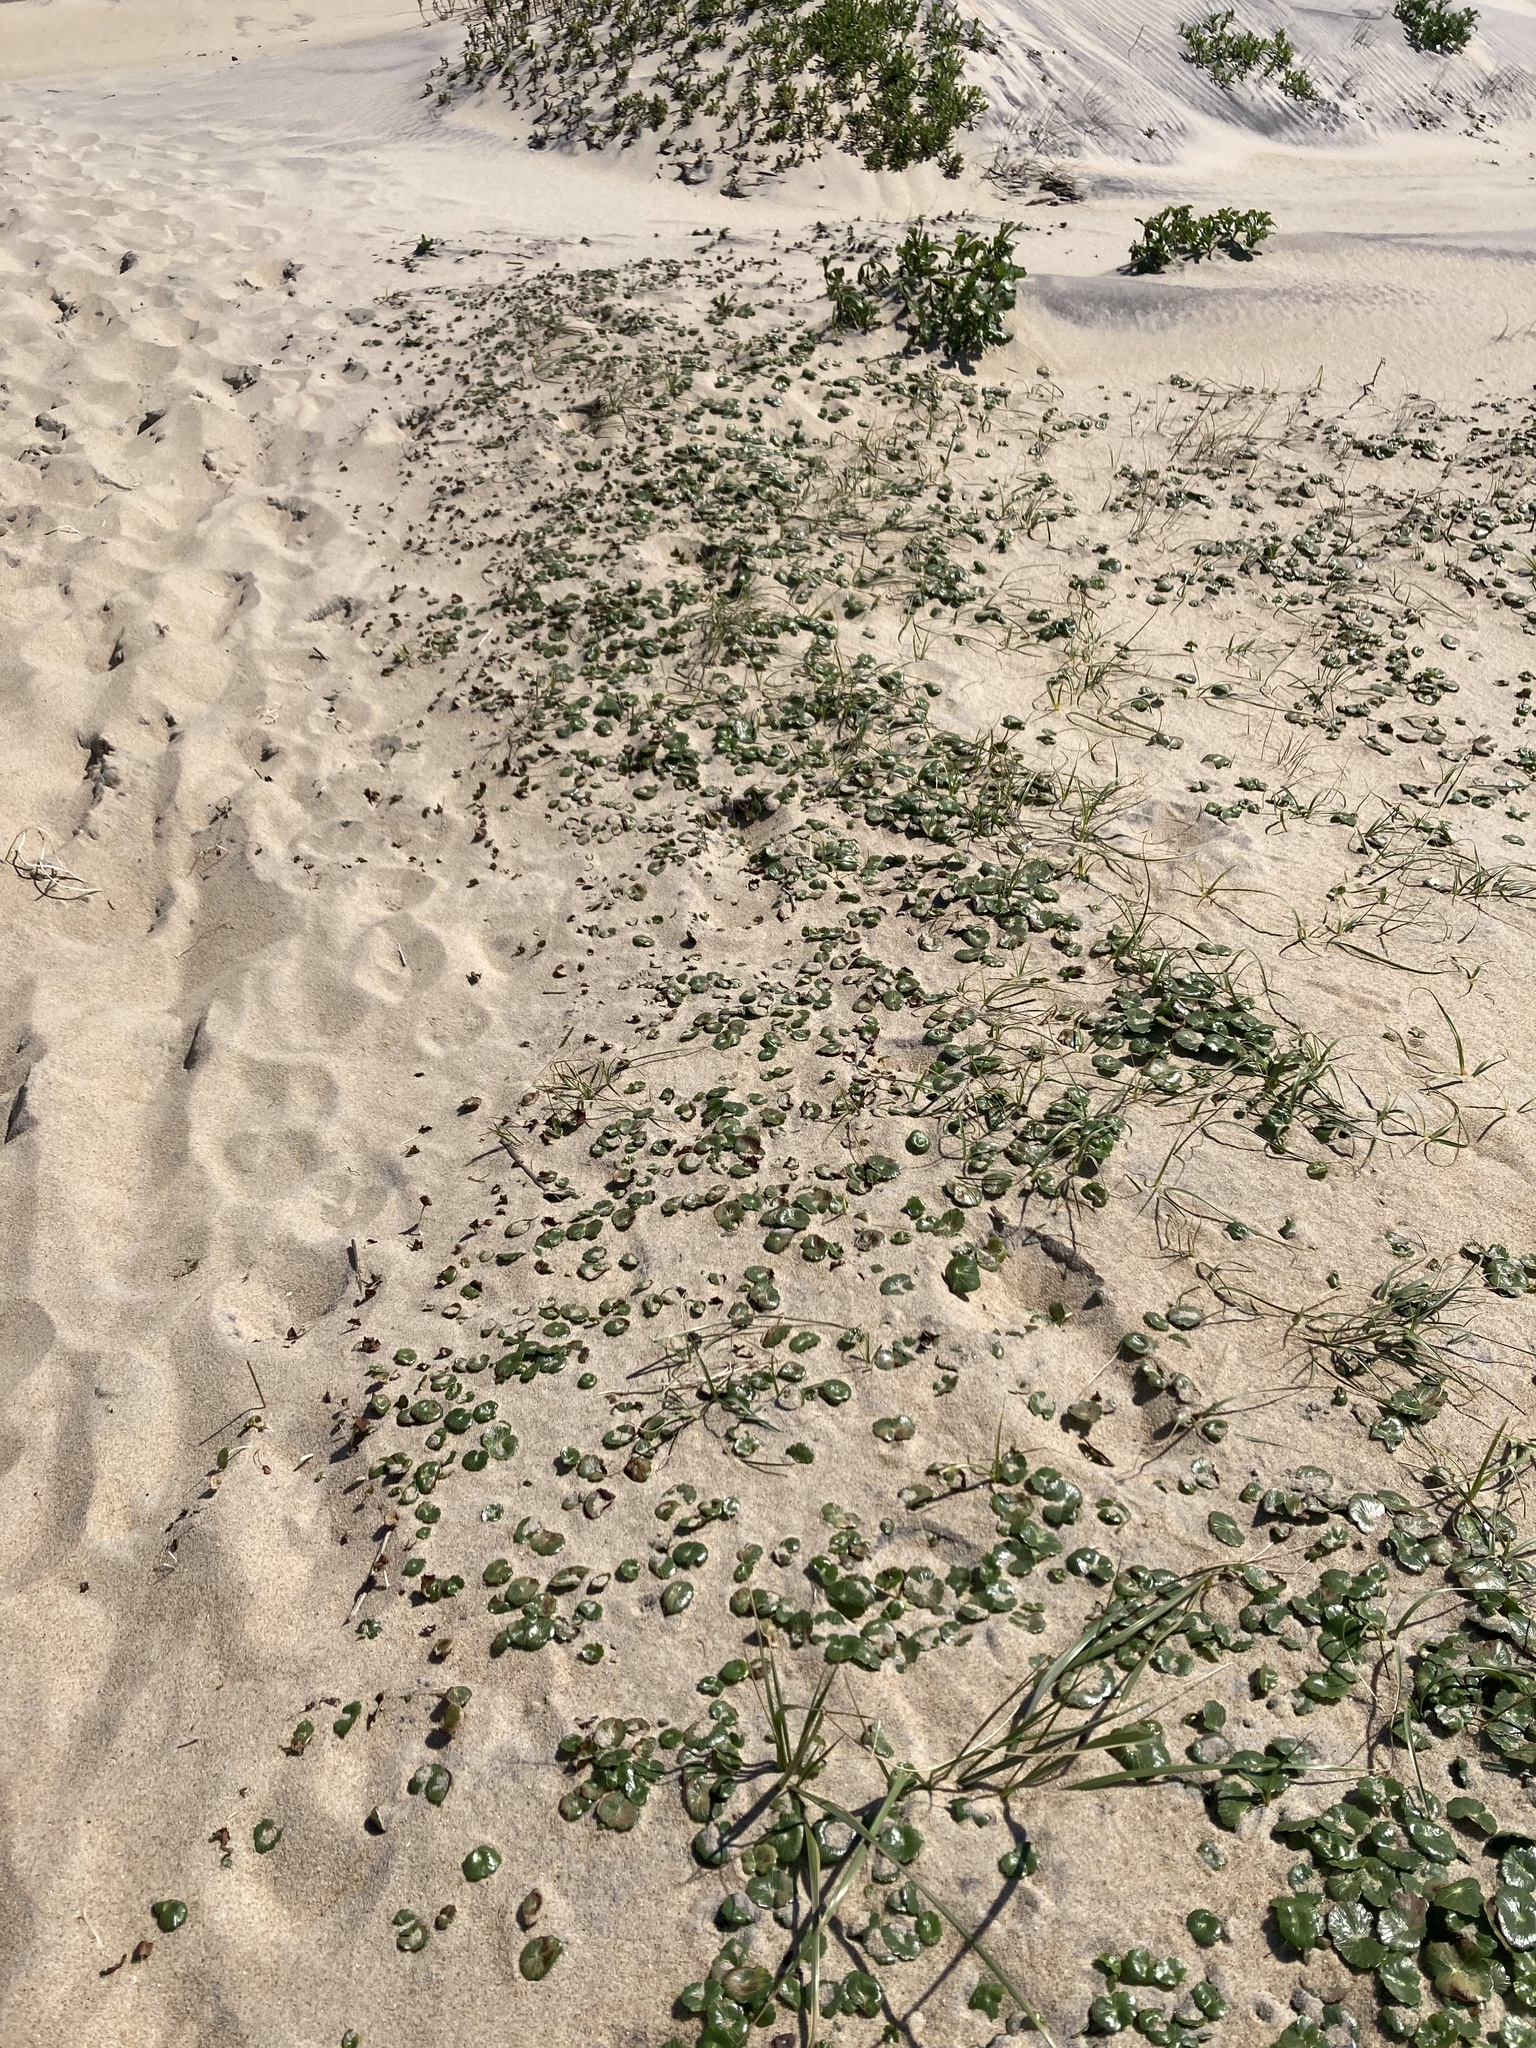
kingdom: Plantae
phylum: Tracheophyta
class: Magnoliopsida
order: Apiales
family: Araliaceae
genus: Hydrocotyle
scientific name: Hydrocotyle bonariensis
